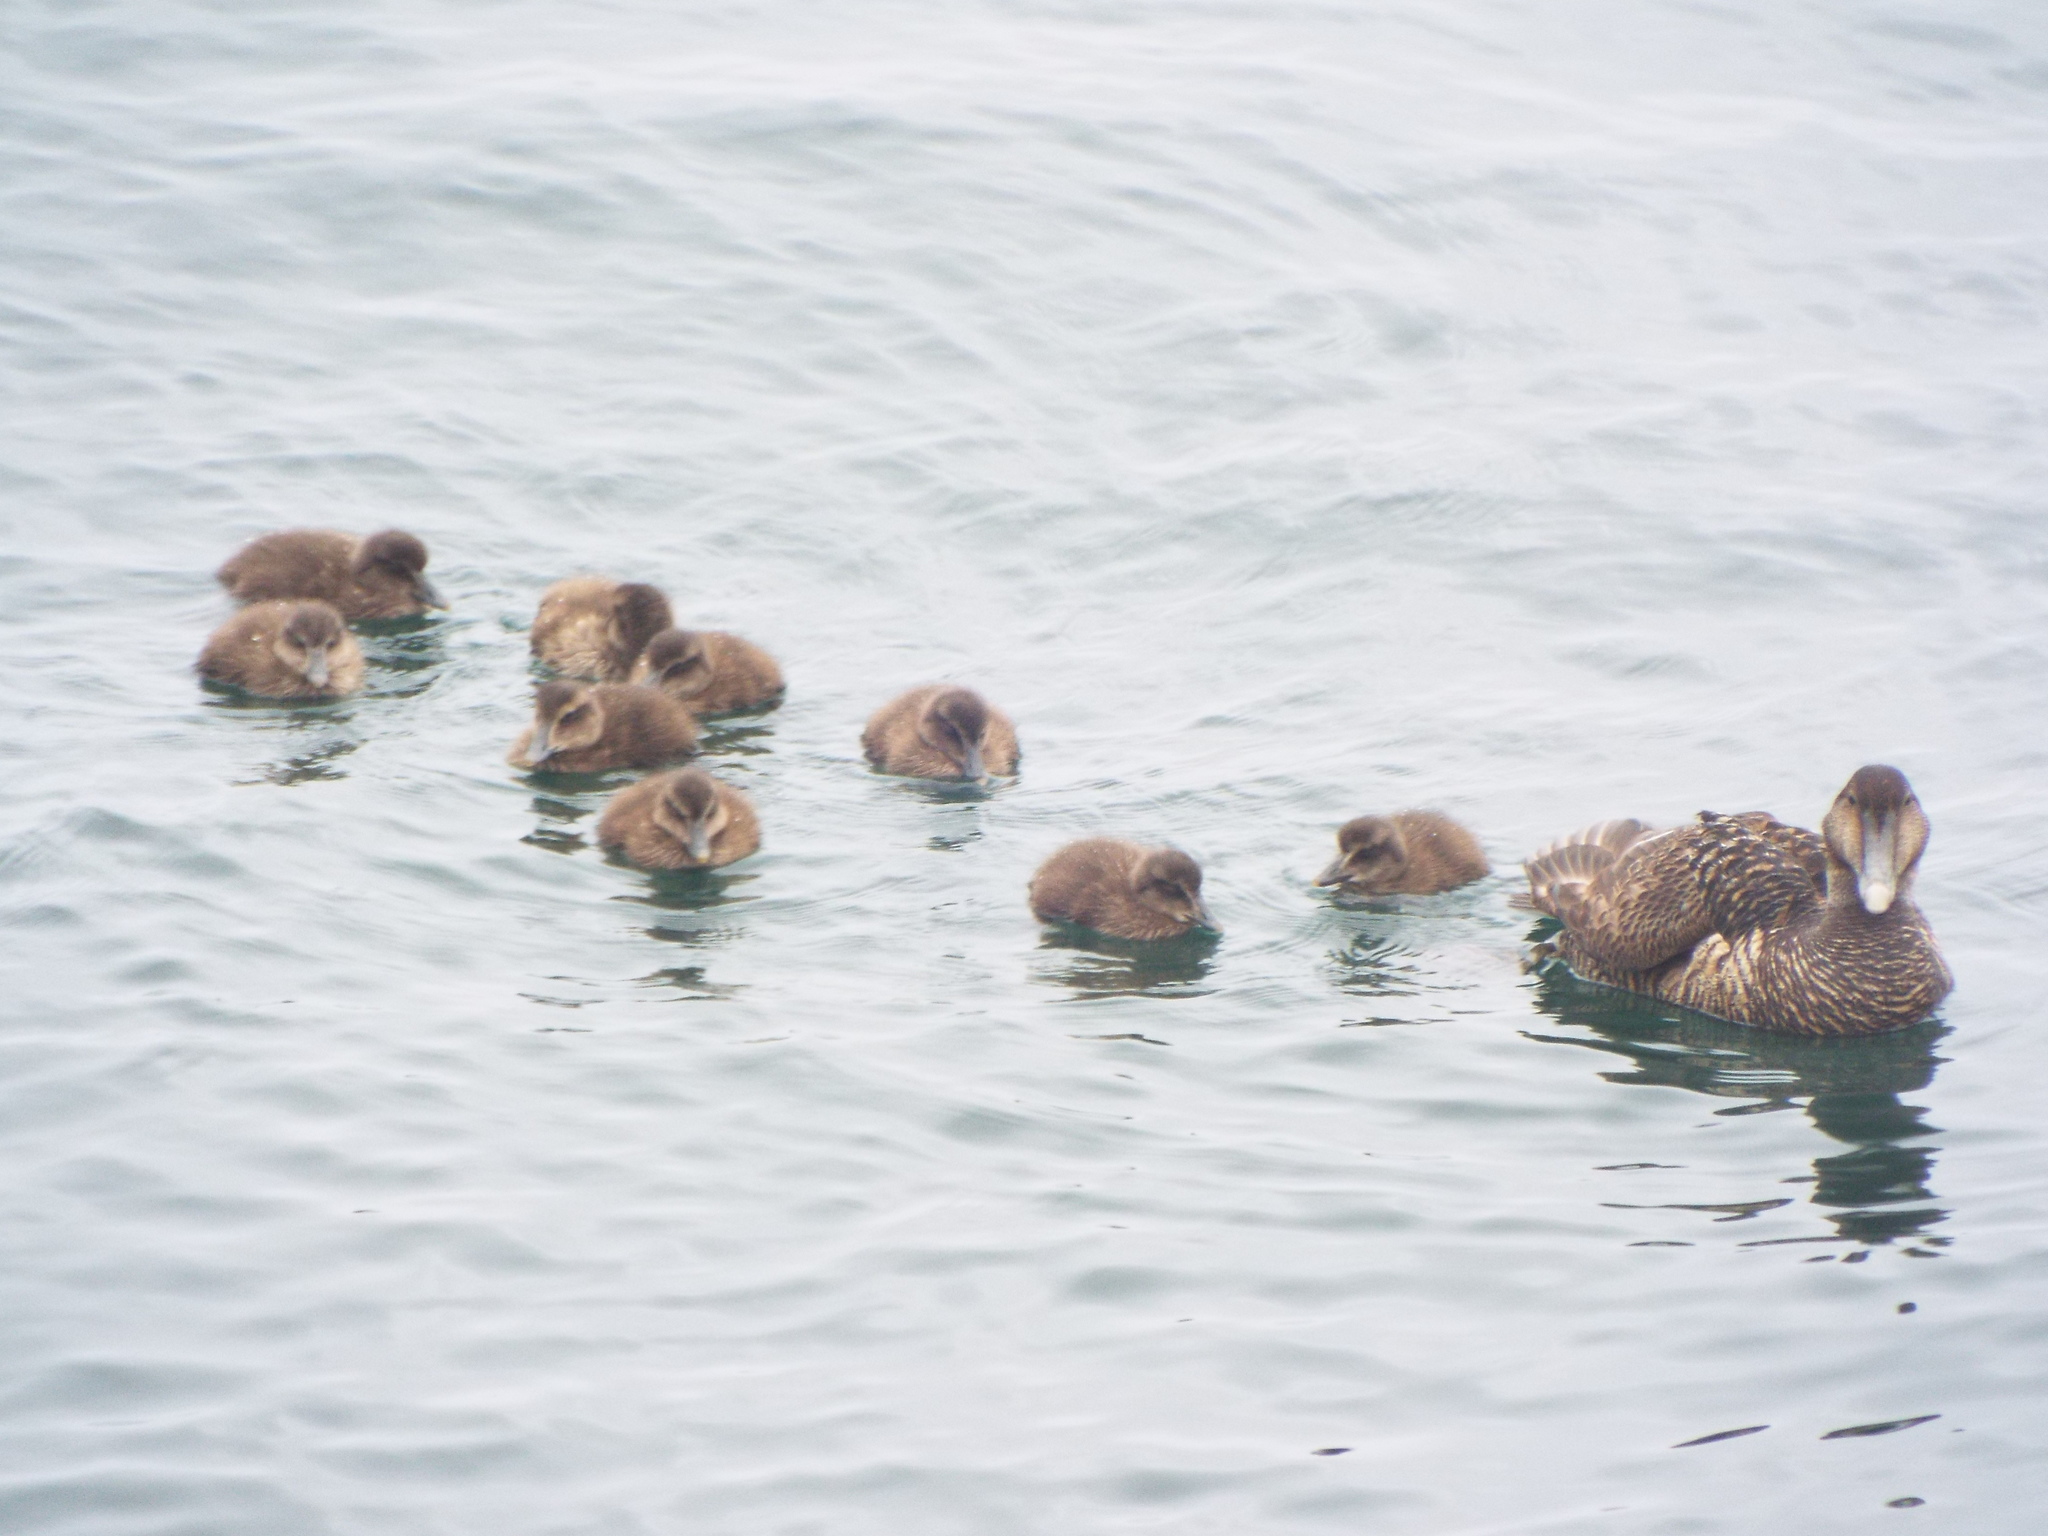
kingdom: Animalia
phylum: Chordata
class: Aves
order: Anseriformes
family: Anatidae
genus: Somateria
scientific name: Somateria mollissima
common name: Common eider
